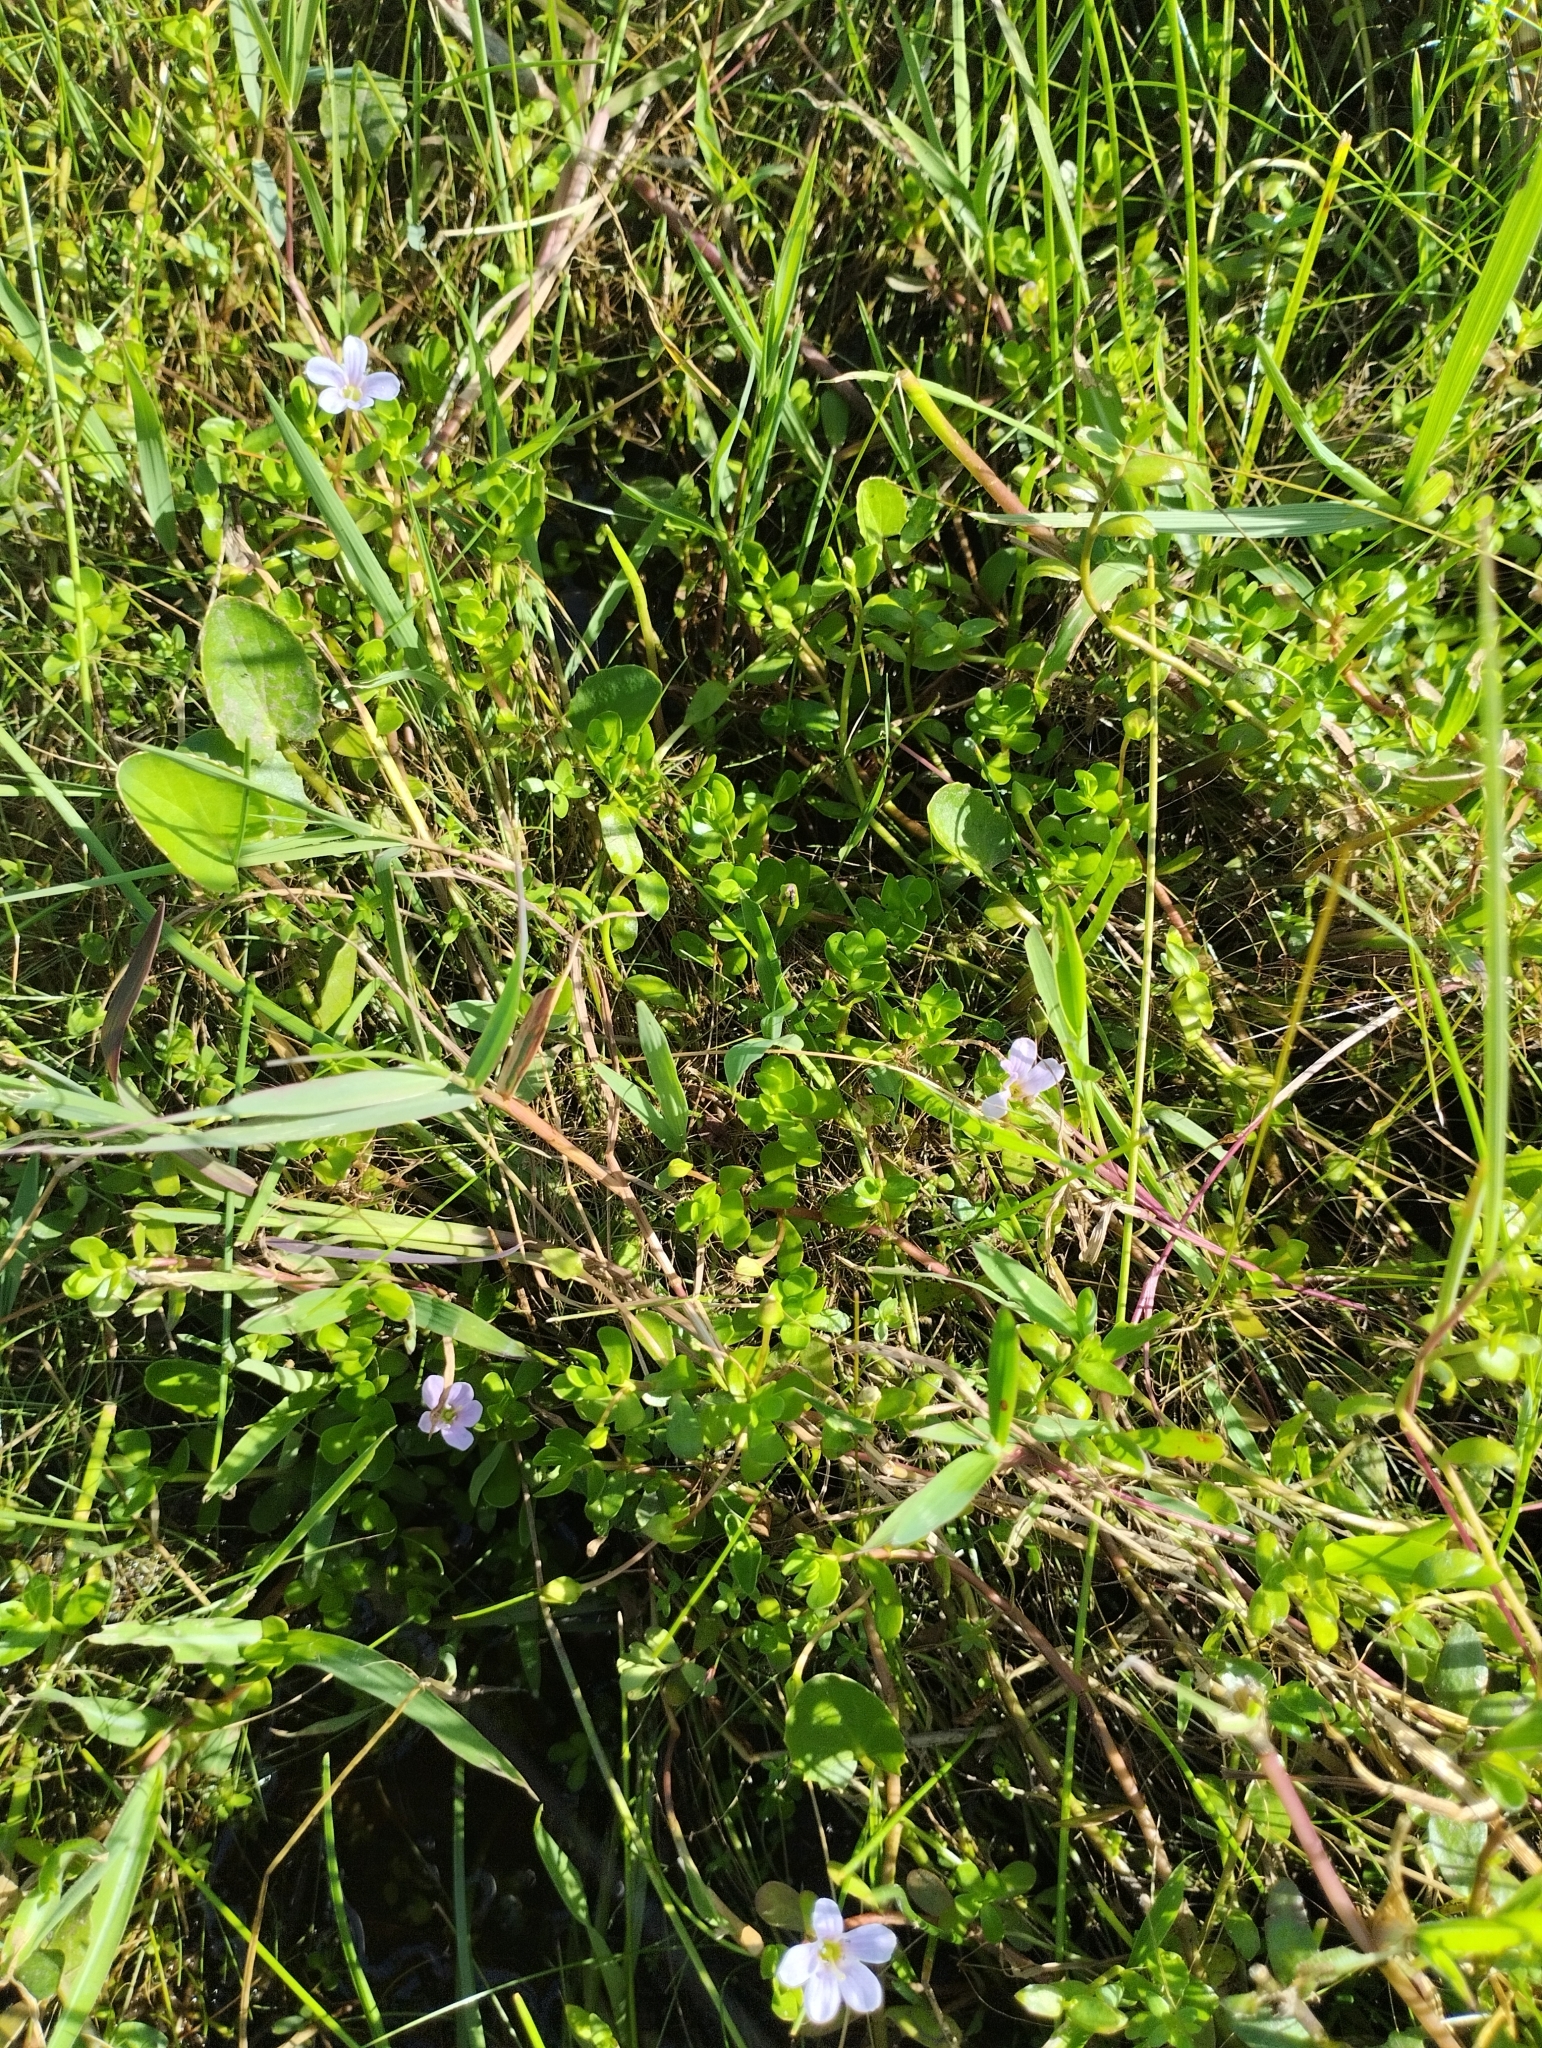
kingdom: Plantae
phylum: Tracheophyta
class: Magnoliopsida
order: Lamiales
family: Plantaginaceae
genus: Bacopa
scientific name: Bacopa monnieri
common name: Indian-pennywort
